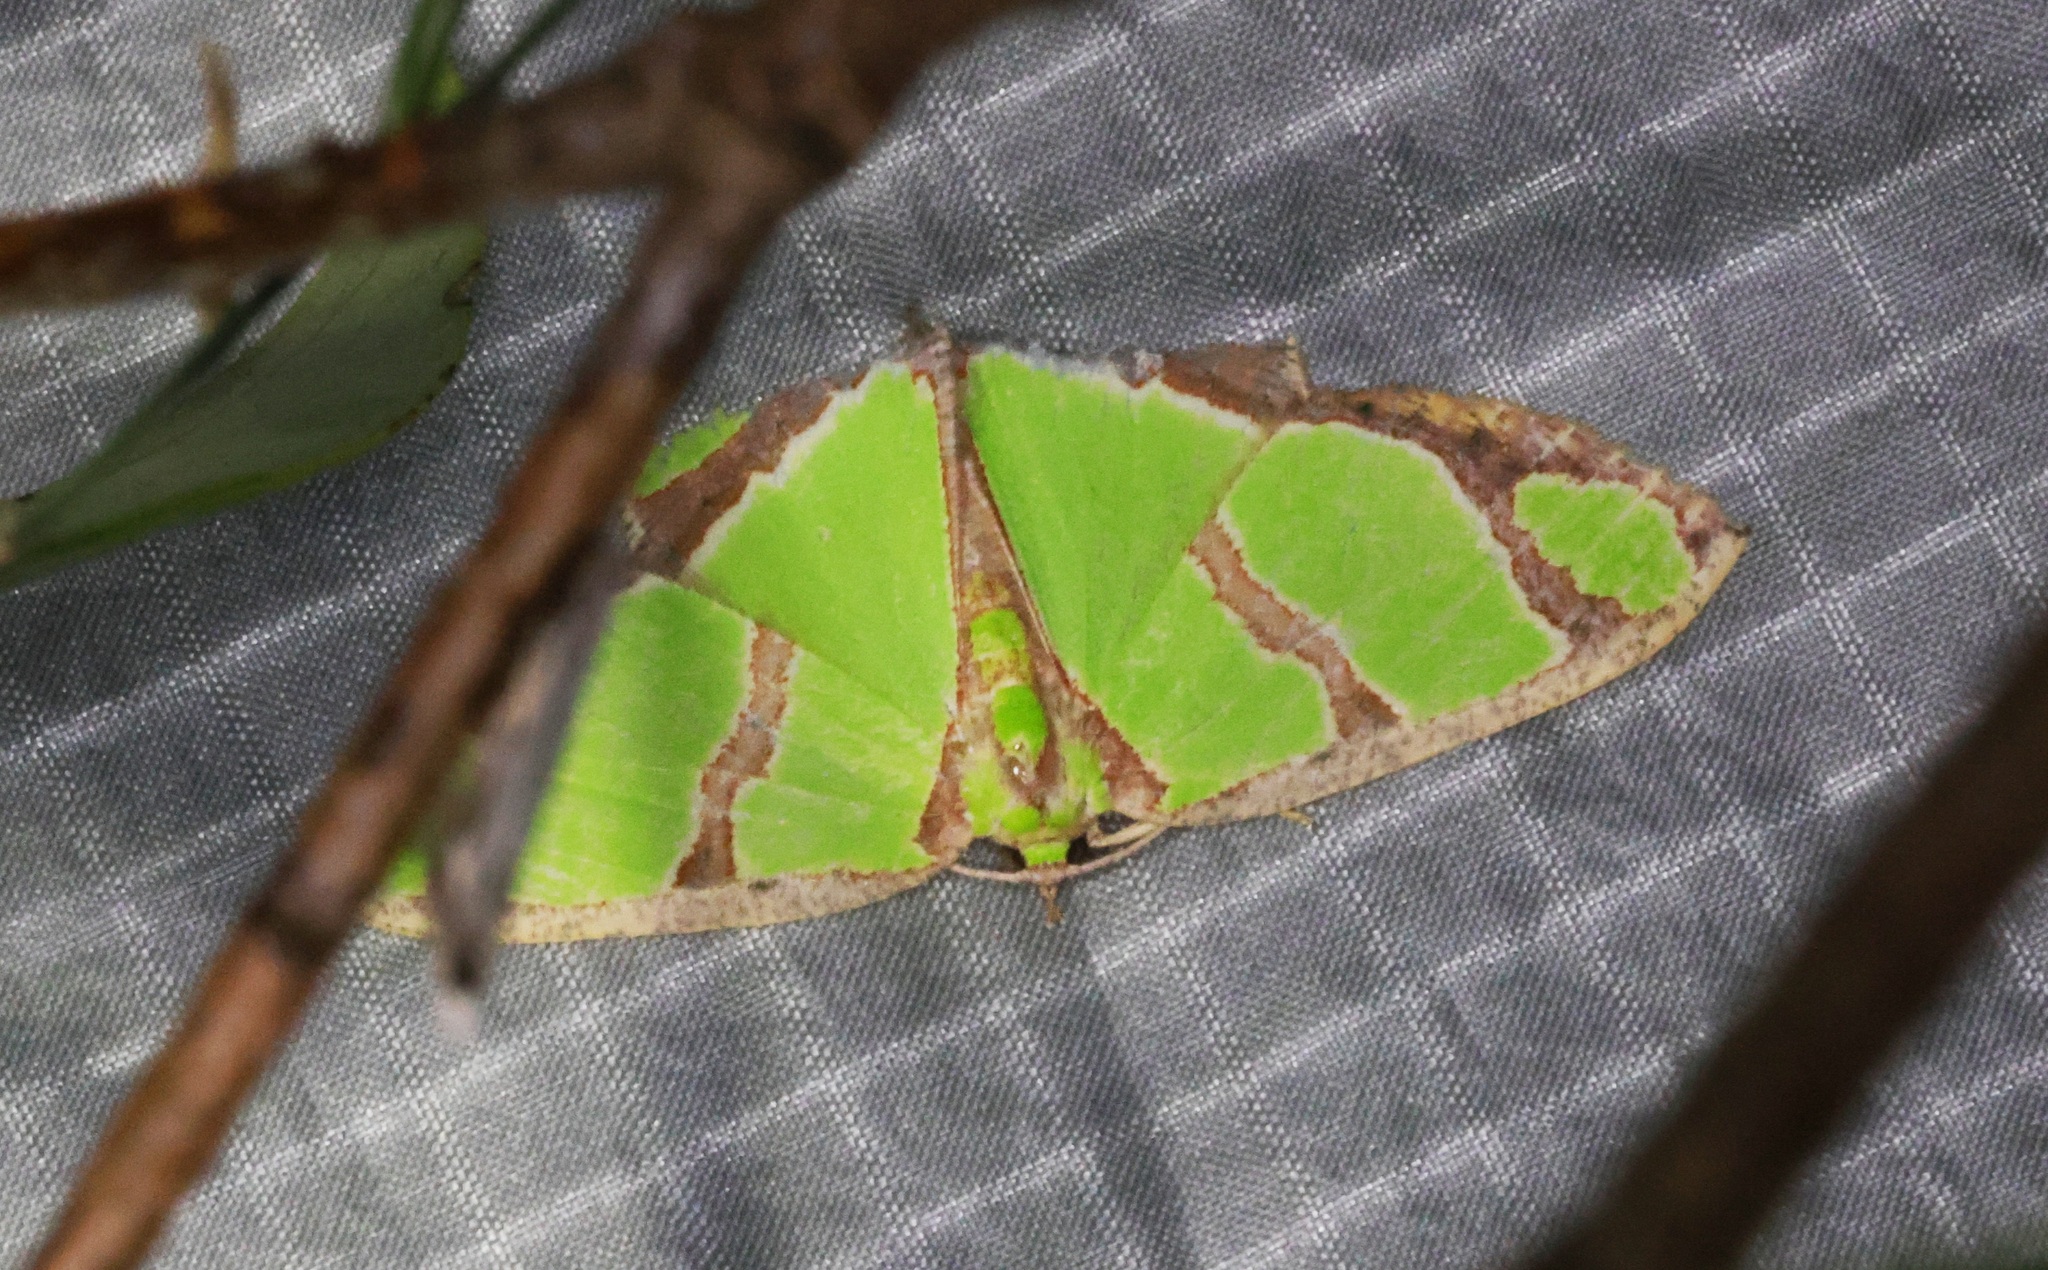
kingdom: Animalia
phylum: Arthropoda
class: Insecta
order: Lepidoptera
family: Geometridae
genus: Agathia
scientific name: Agathia carissima
